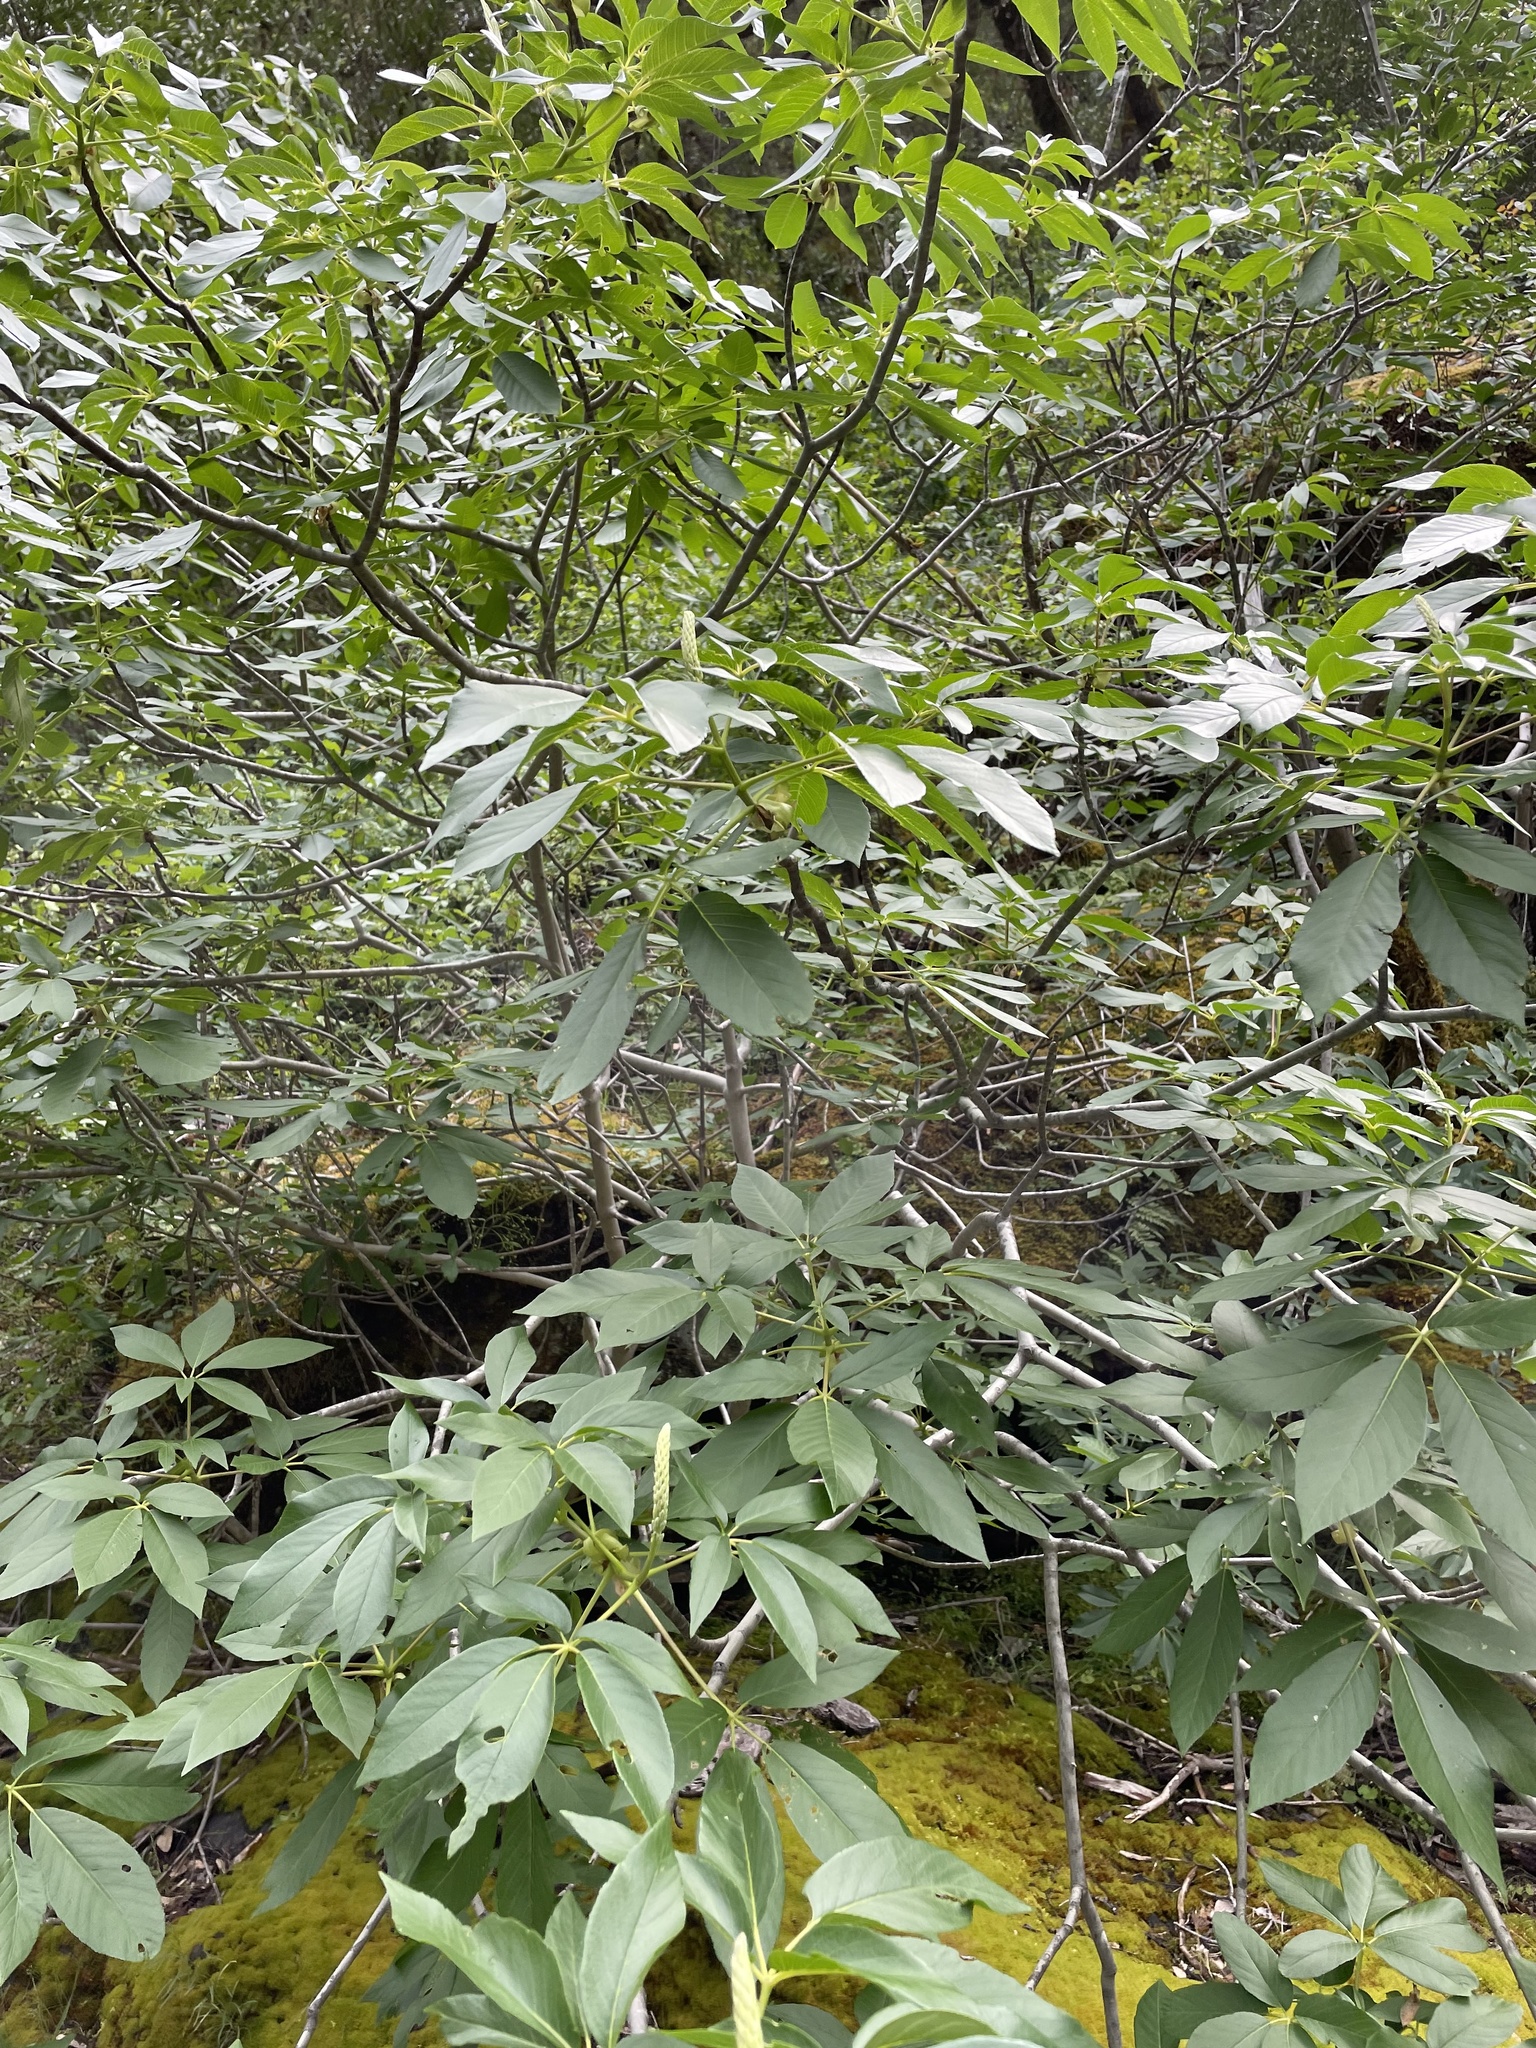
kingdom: Plantae
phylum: Tracheophyta
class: Magnoliopsida
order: Sapindales
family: Sapindaceae
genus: Aesculus
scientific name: Aesculus californica
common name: California buckeye
